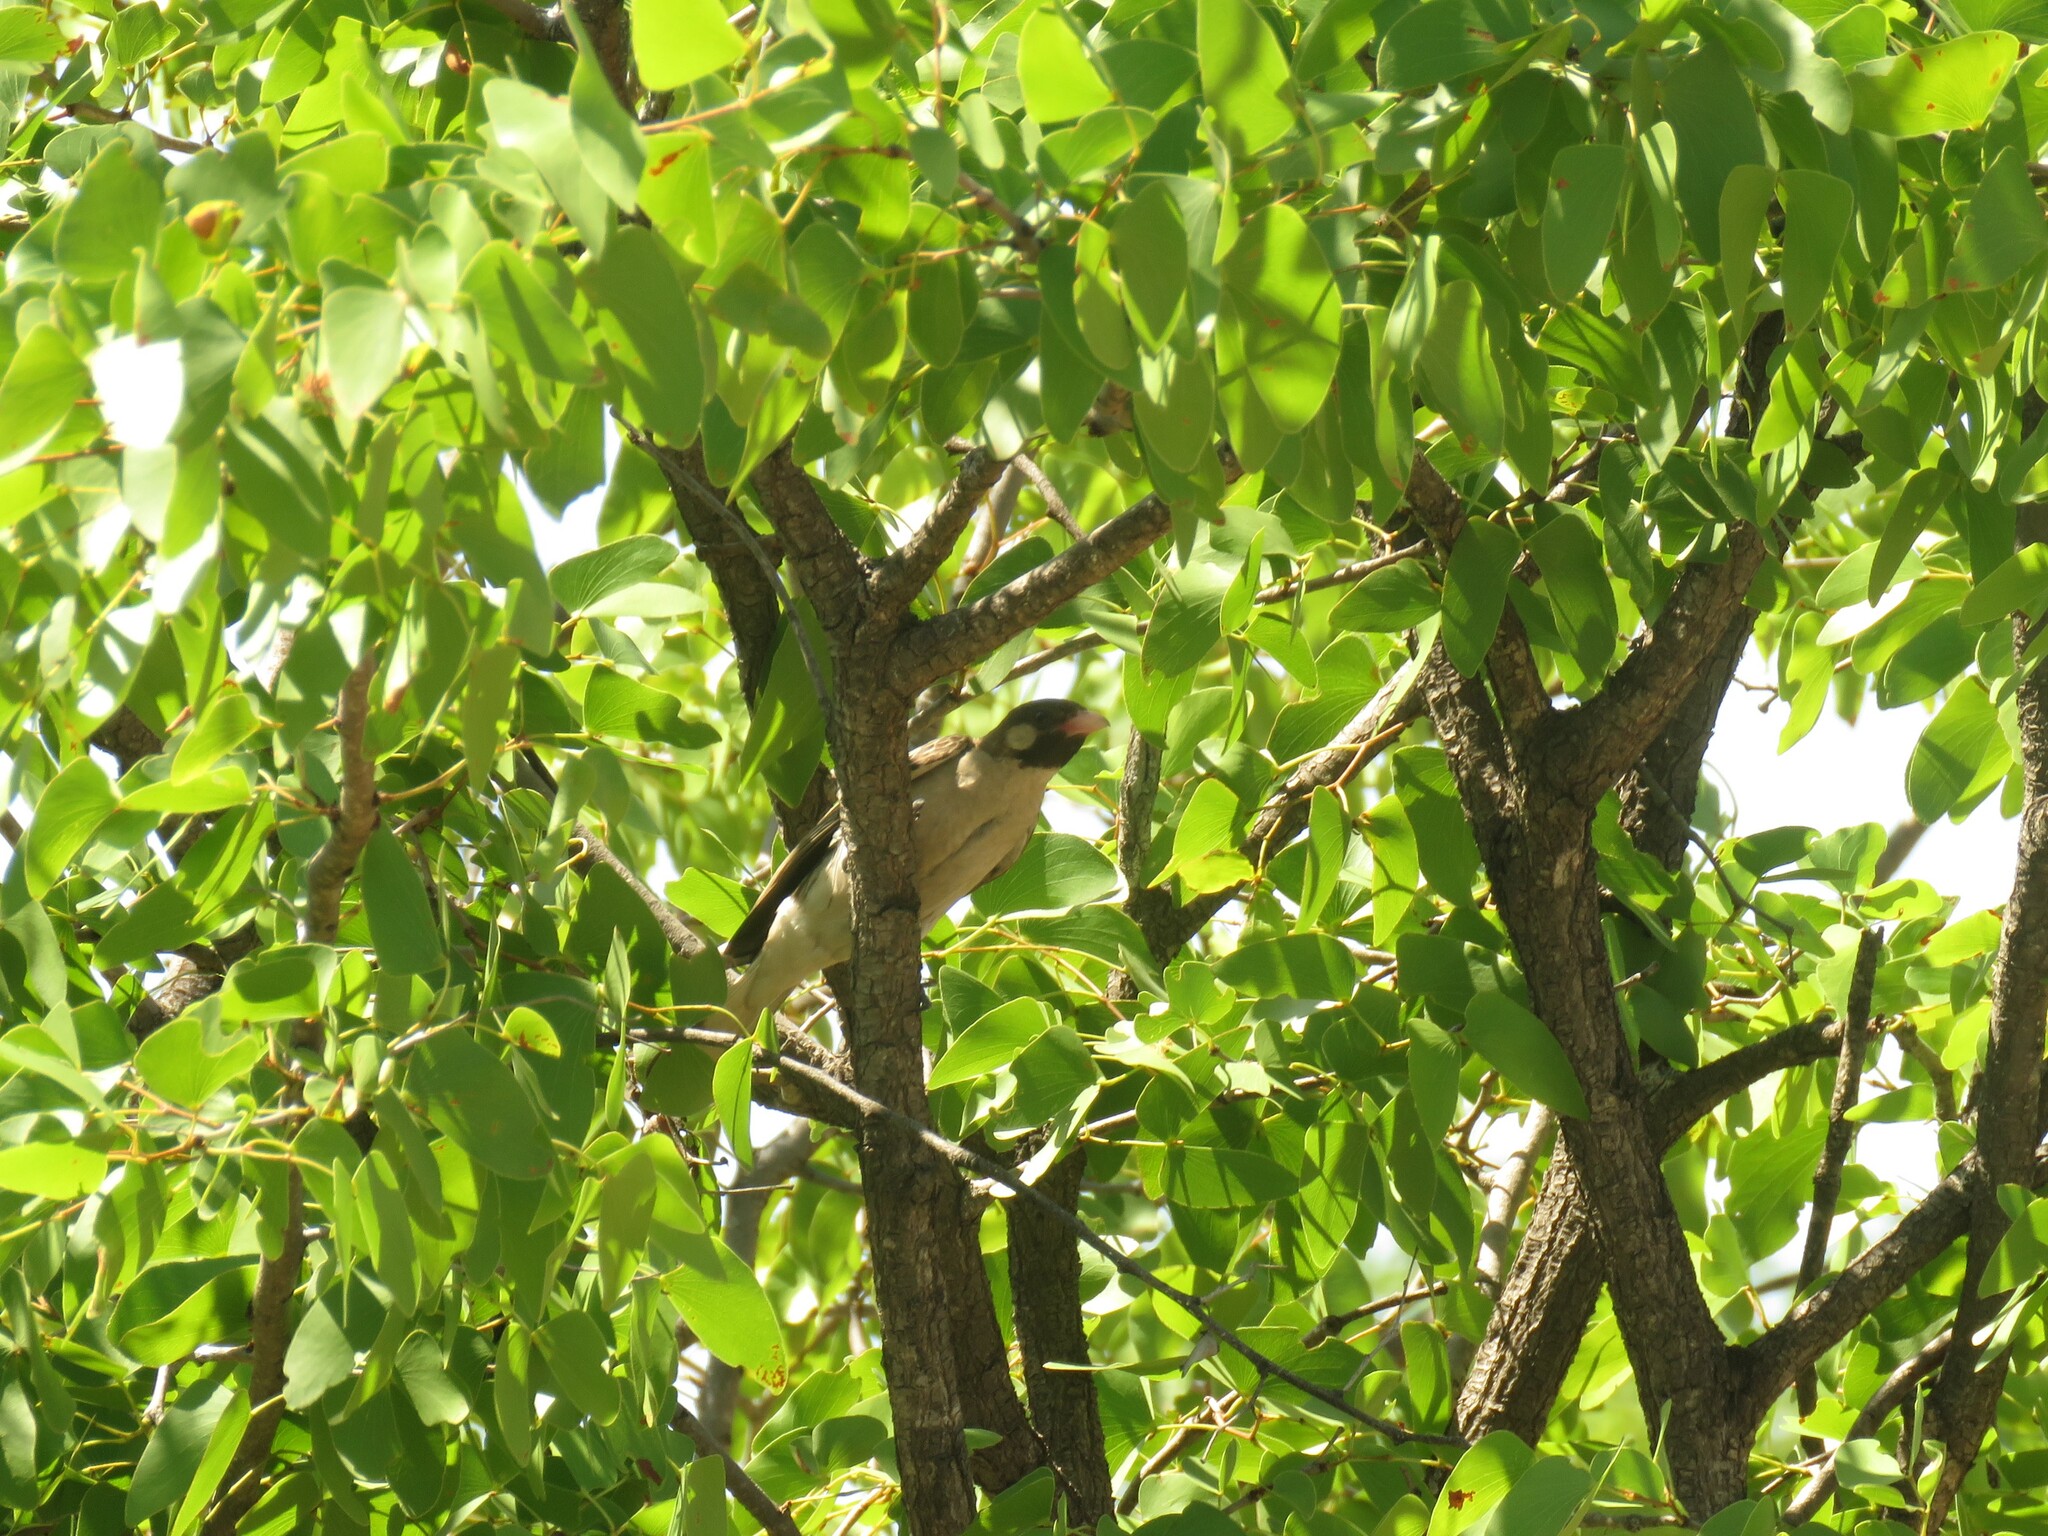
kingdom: Animalia
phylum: Chordata
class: Aves
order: Piciformes
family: Indicatoridae
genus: Indicator
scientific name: Indicator indicator
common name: Greater honeyguide
